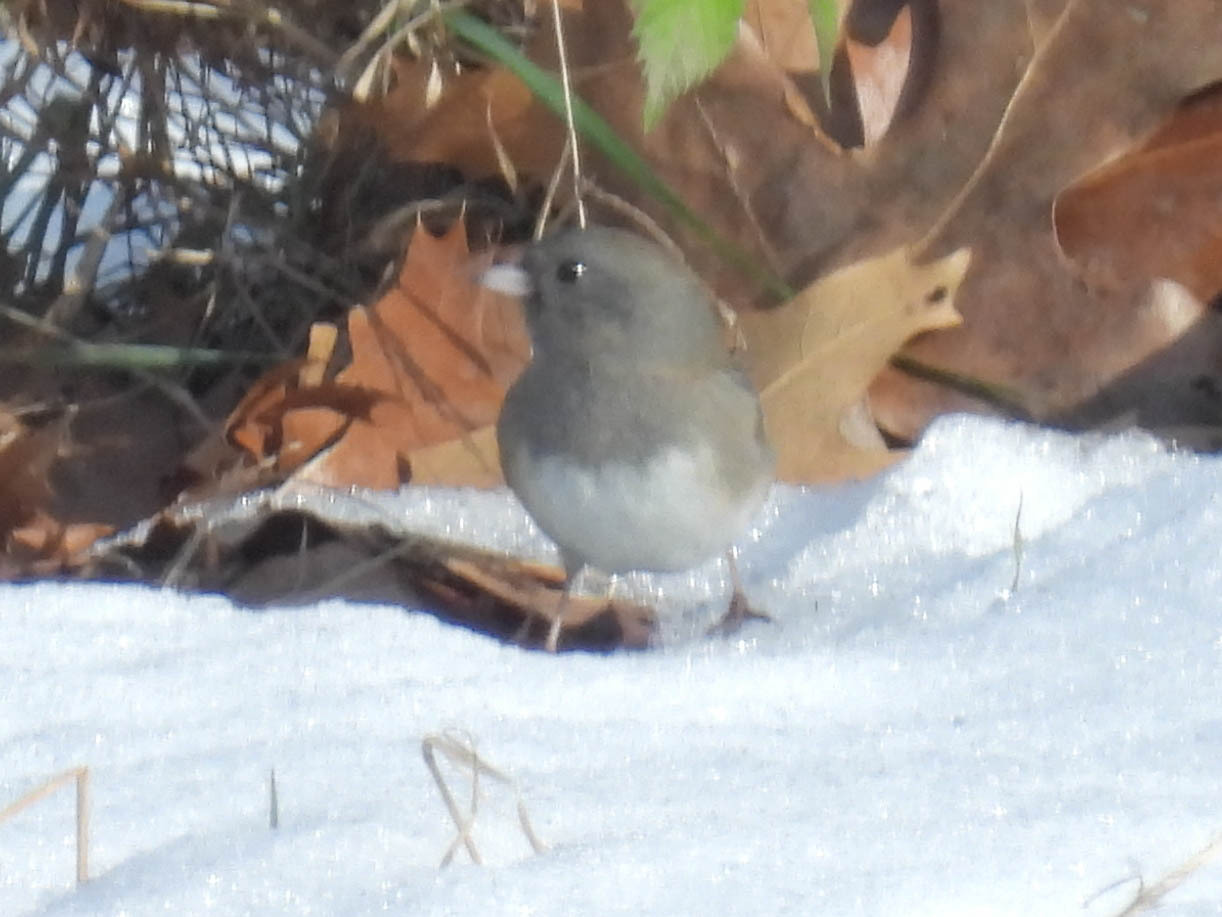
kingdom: Animalia
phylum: Chordata
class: Aves
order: Passeriformes
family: Passerellidae
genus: Junco
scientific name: Junco hyemalis
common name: Dark-eyed junco
